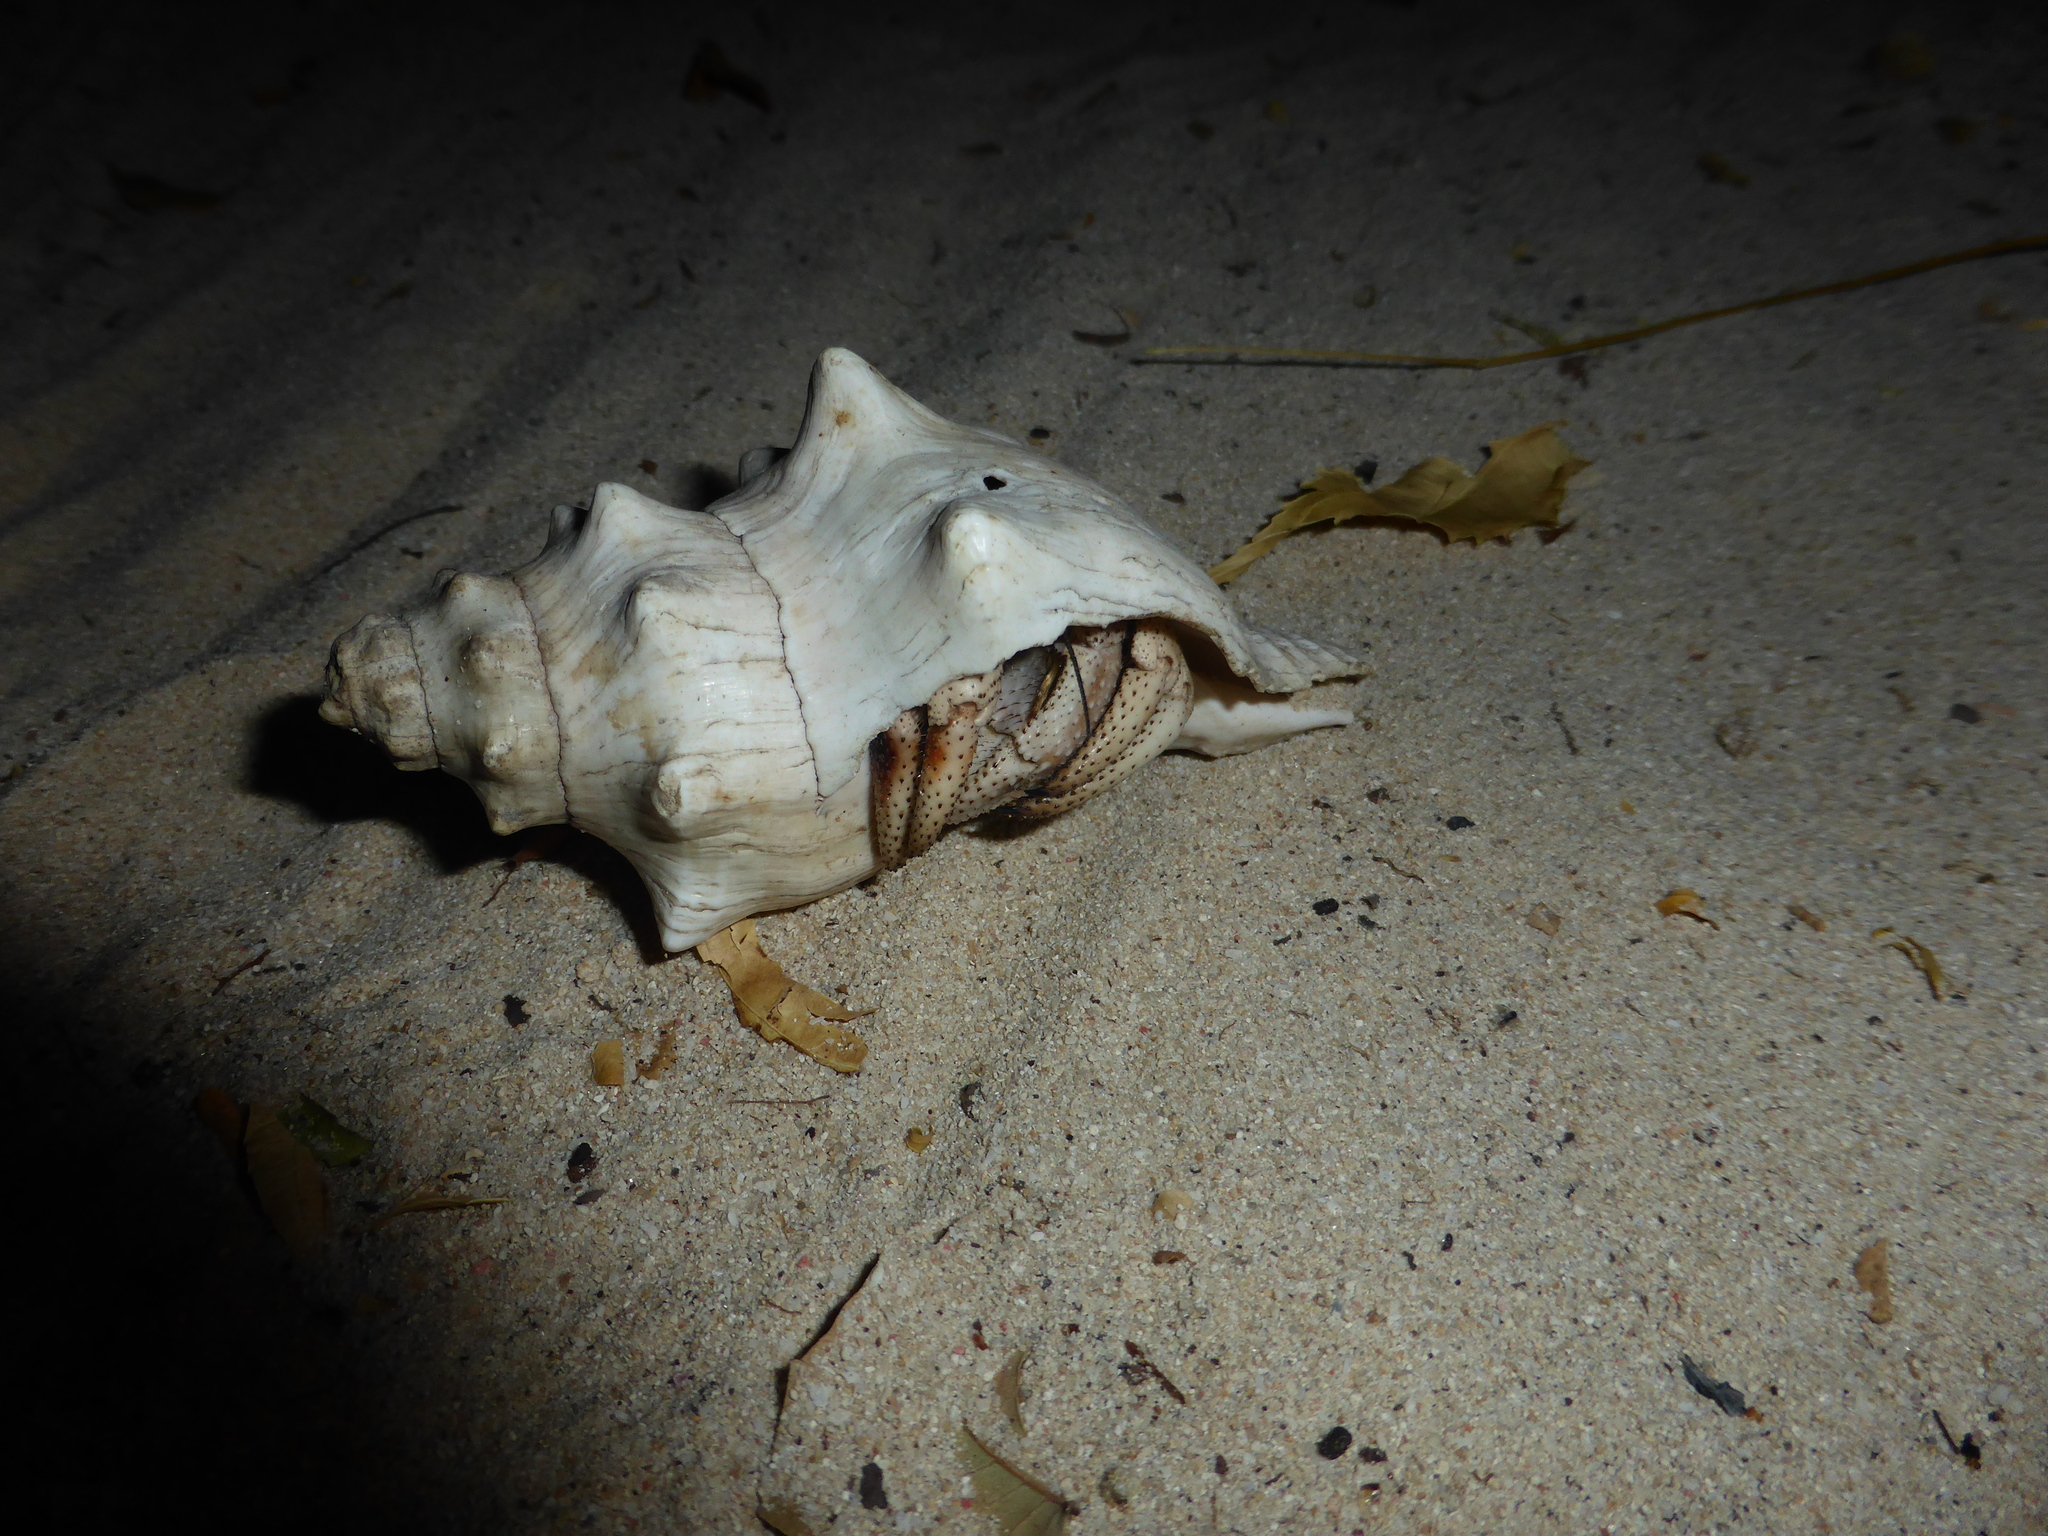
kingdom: Animalia
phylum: Arthropoda
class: Malacostraca
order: Decapoda
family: Coenobitidae
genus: Coenobita
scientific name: Coenobita violascens
